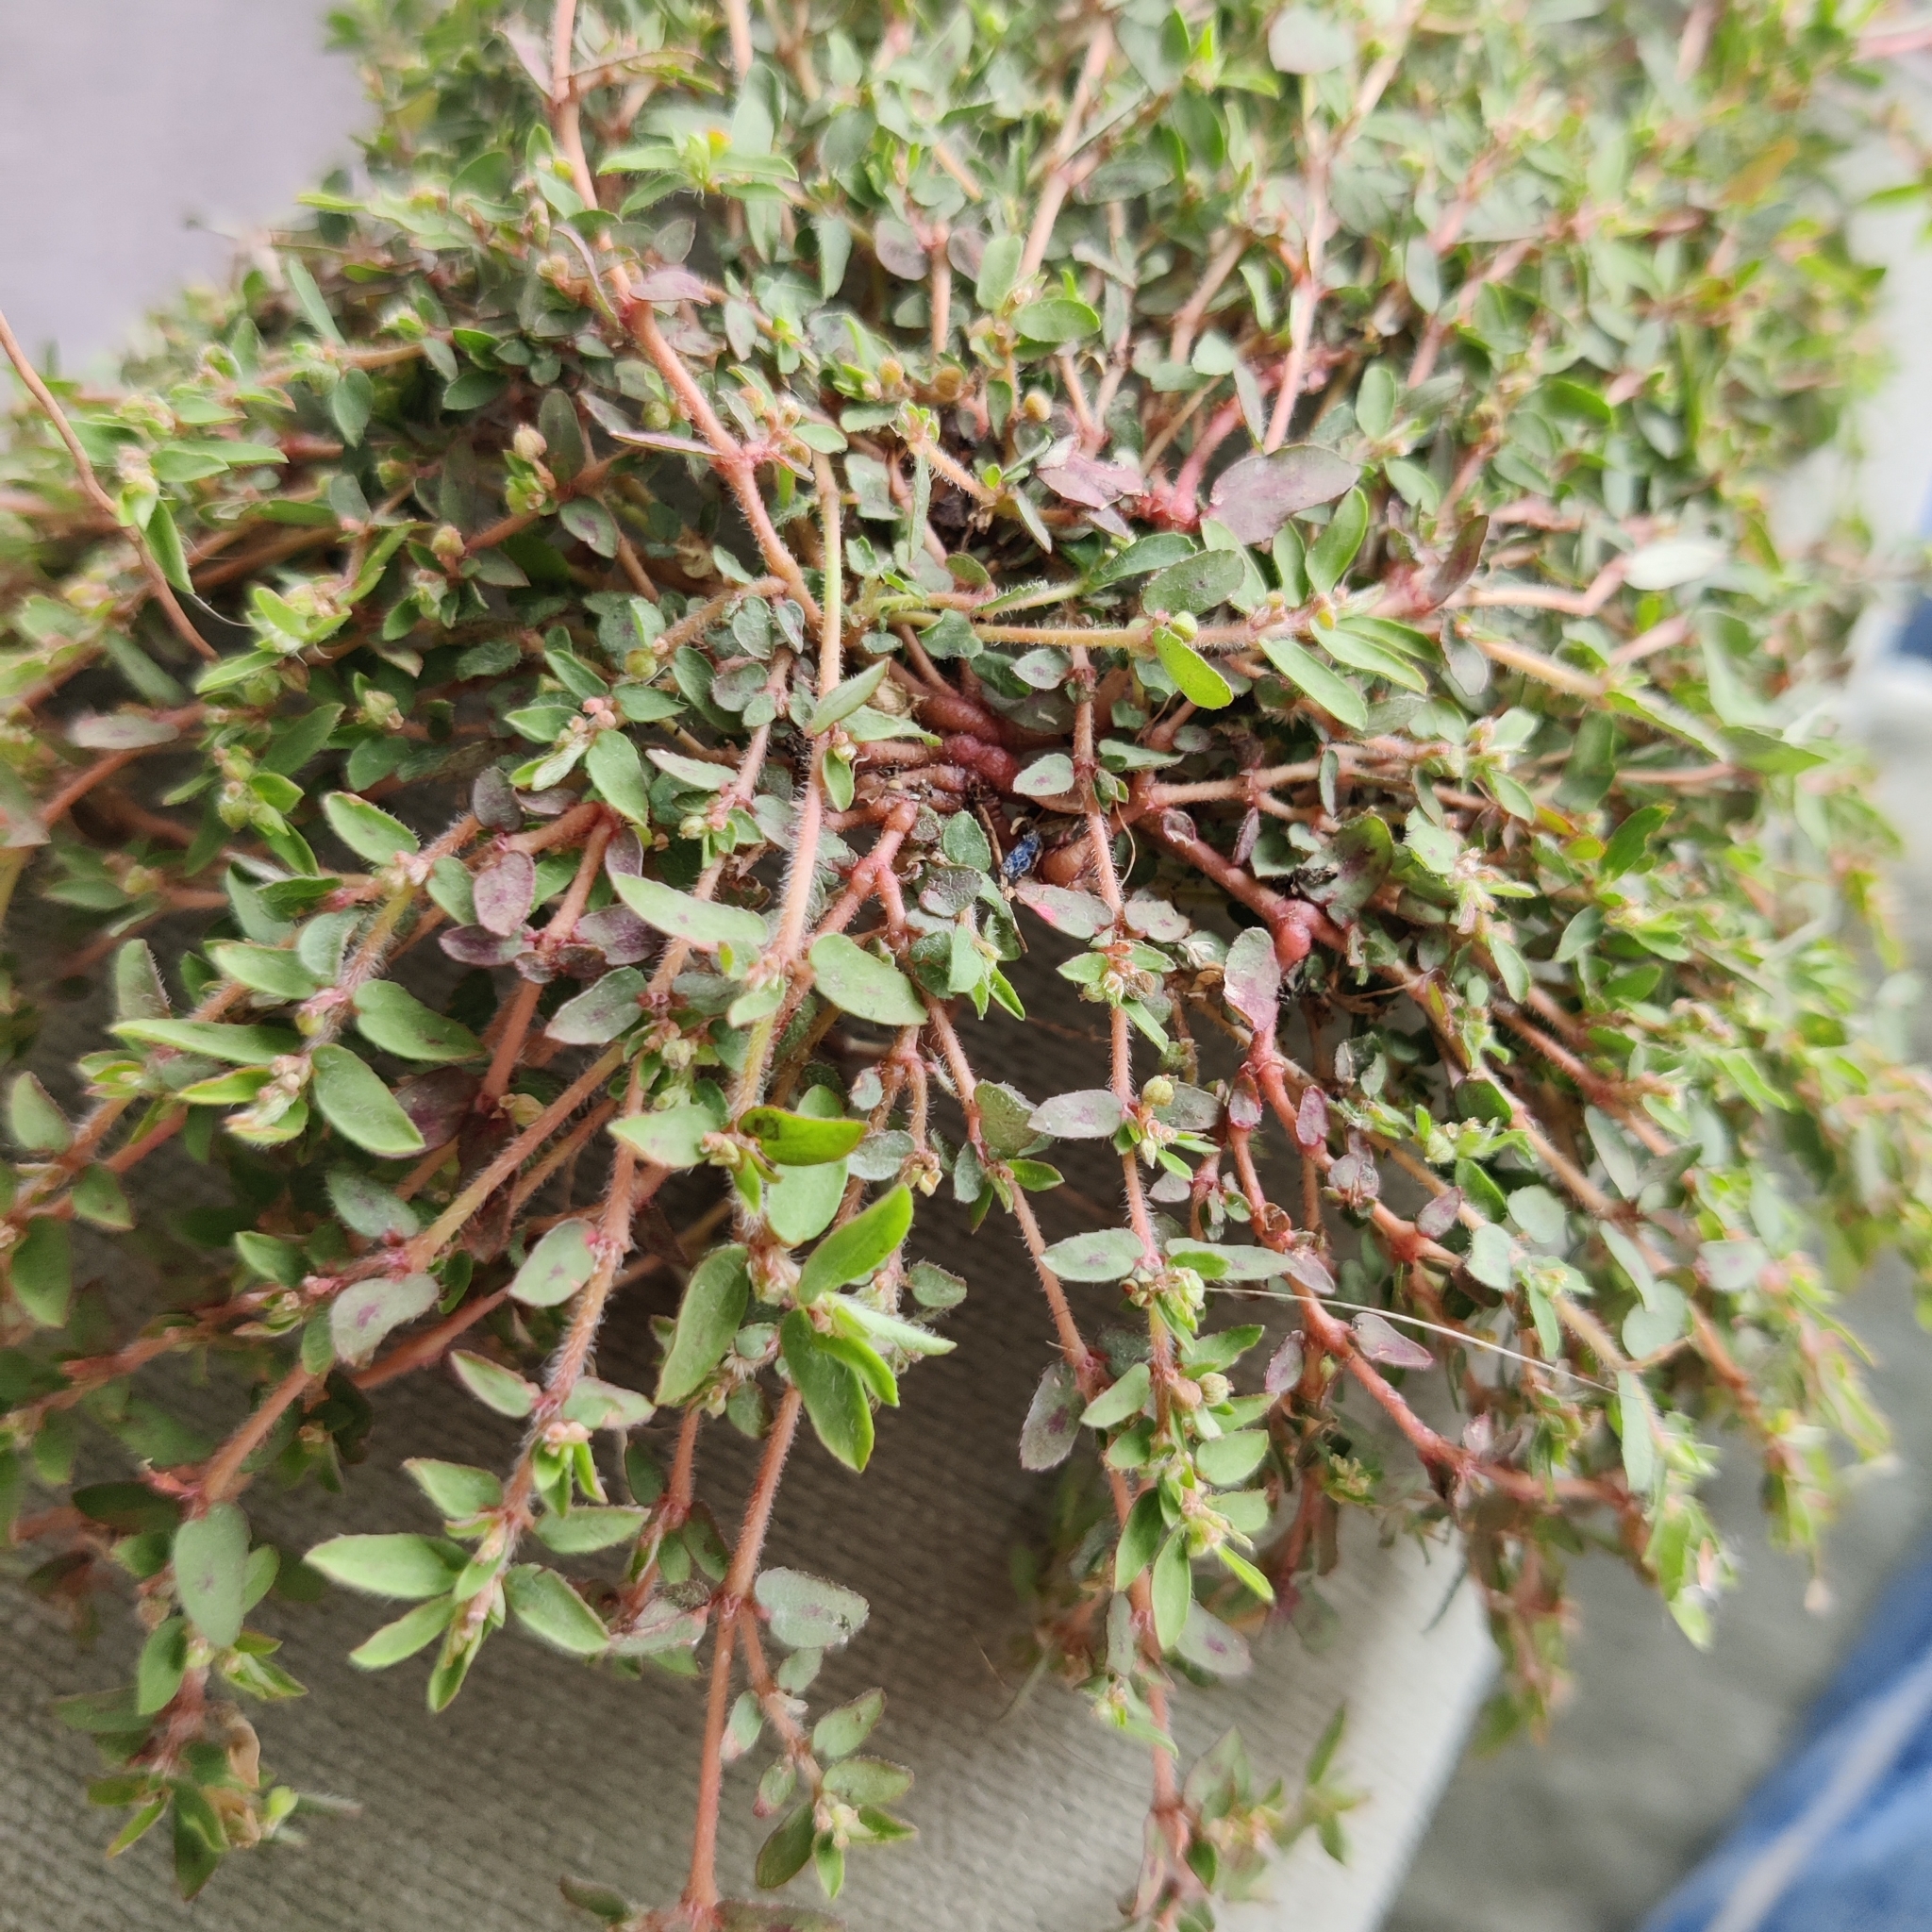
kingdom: Plantae
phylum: Tracheophyta
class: Magnoliopsida
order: Malpighiales
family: Euphorbiaceae
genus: Euphorbia
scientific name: Euphorbia maculata
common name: Spotted spurge
